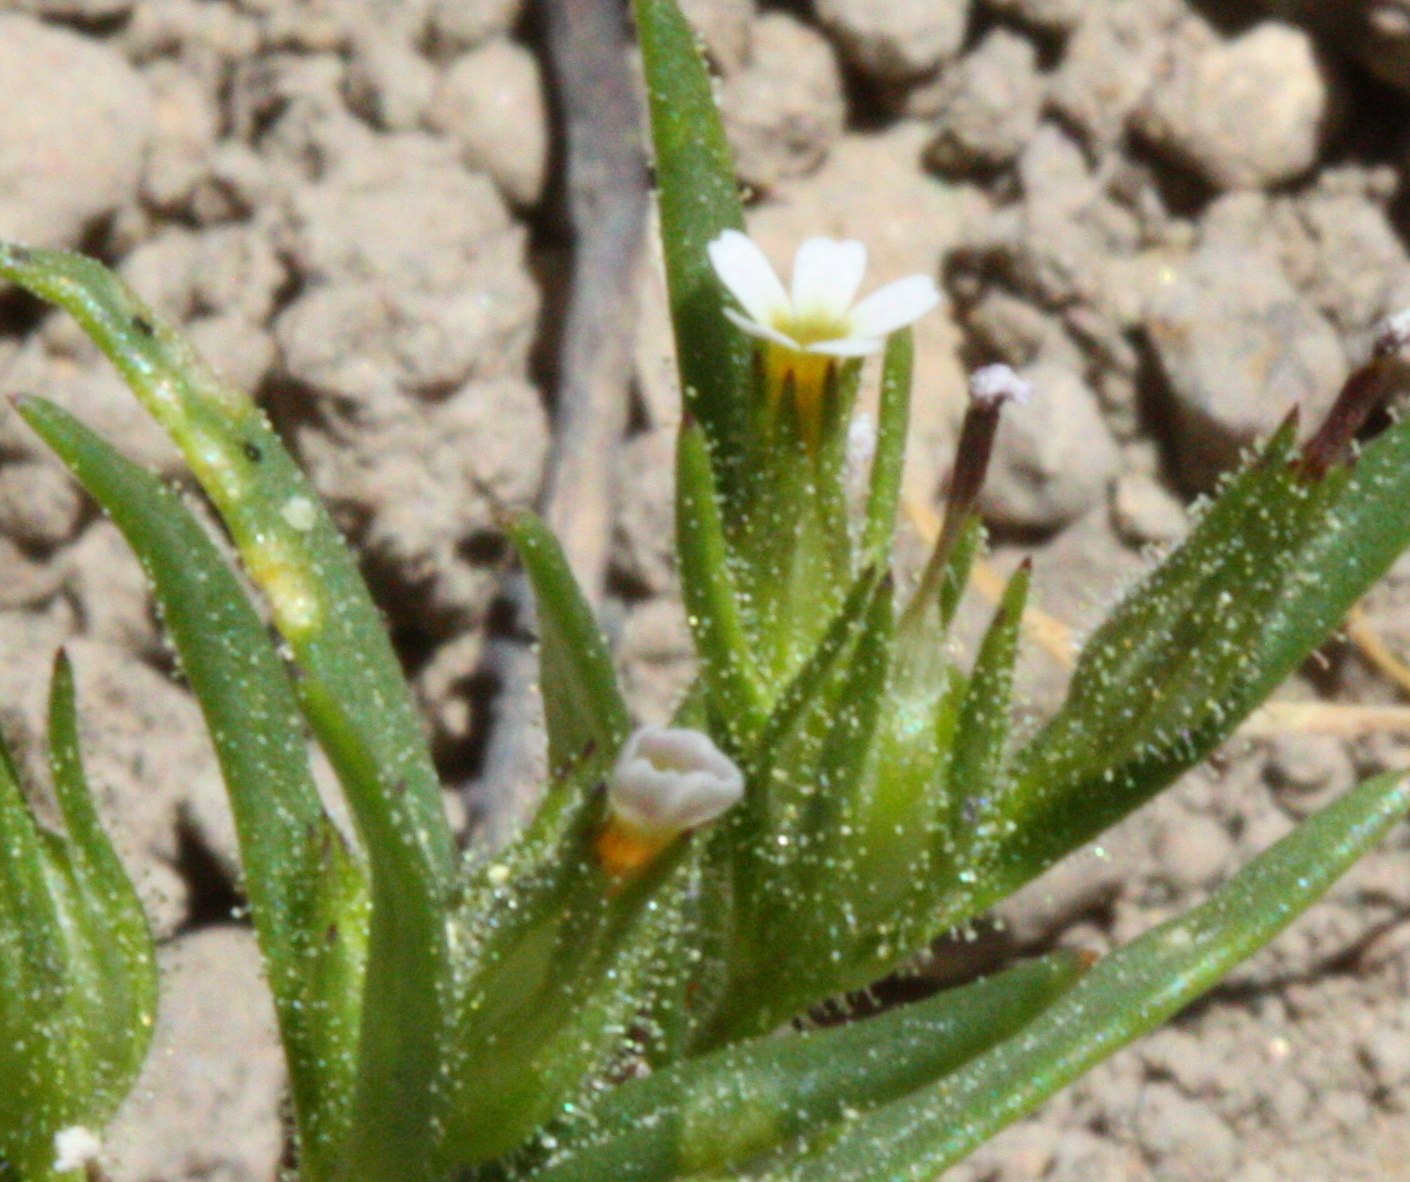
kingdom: Plantae
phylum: Tracheophyta
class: Magnoliopsida
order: Ericales
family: Polemoniaceae
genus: Phlox
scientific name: Phlox gracilis
